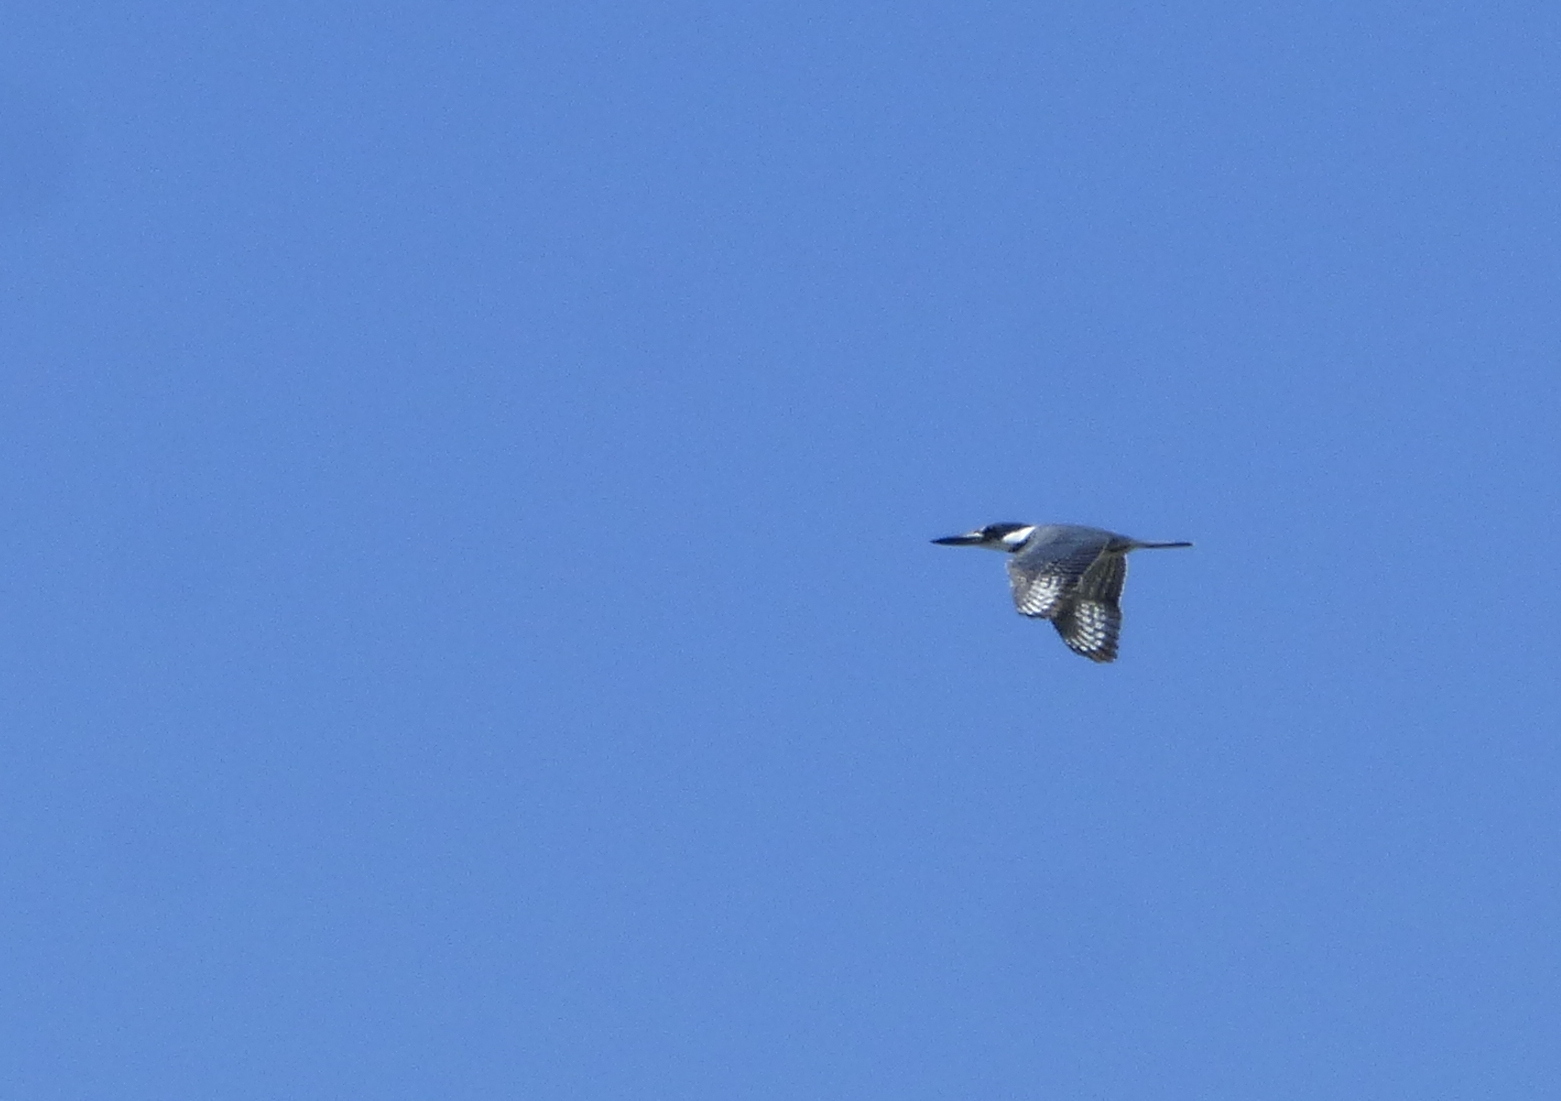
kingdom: Animalia
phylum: Chordata
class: Aves
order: Coraciiformes
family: Alcedinidae
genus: Megaceryle
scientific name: Megaceryle torquata
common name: Ringed kingfisher
